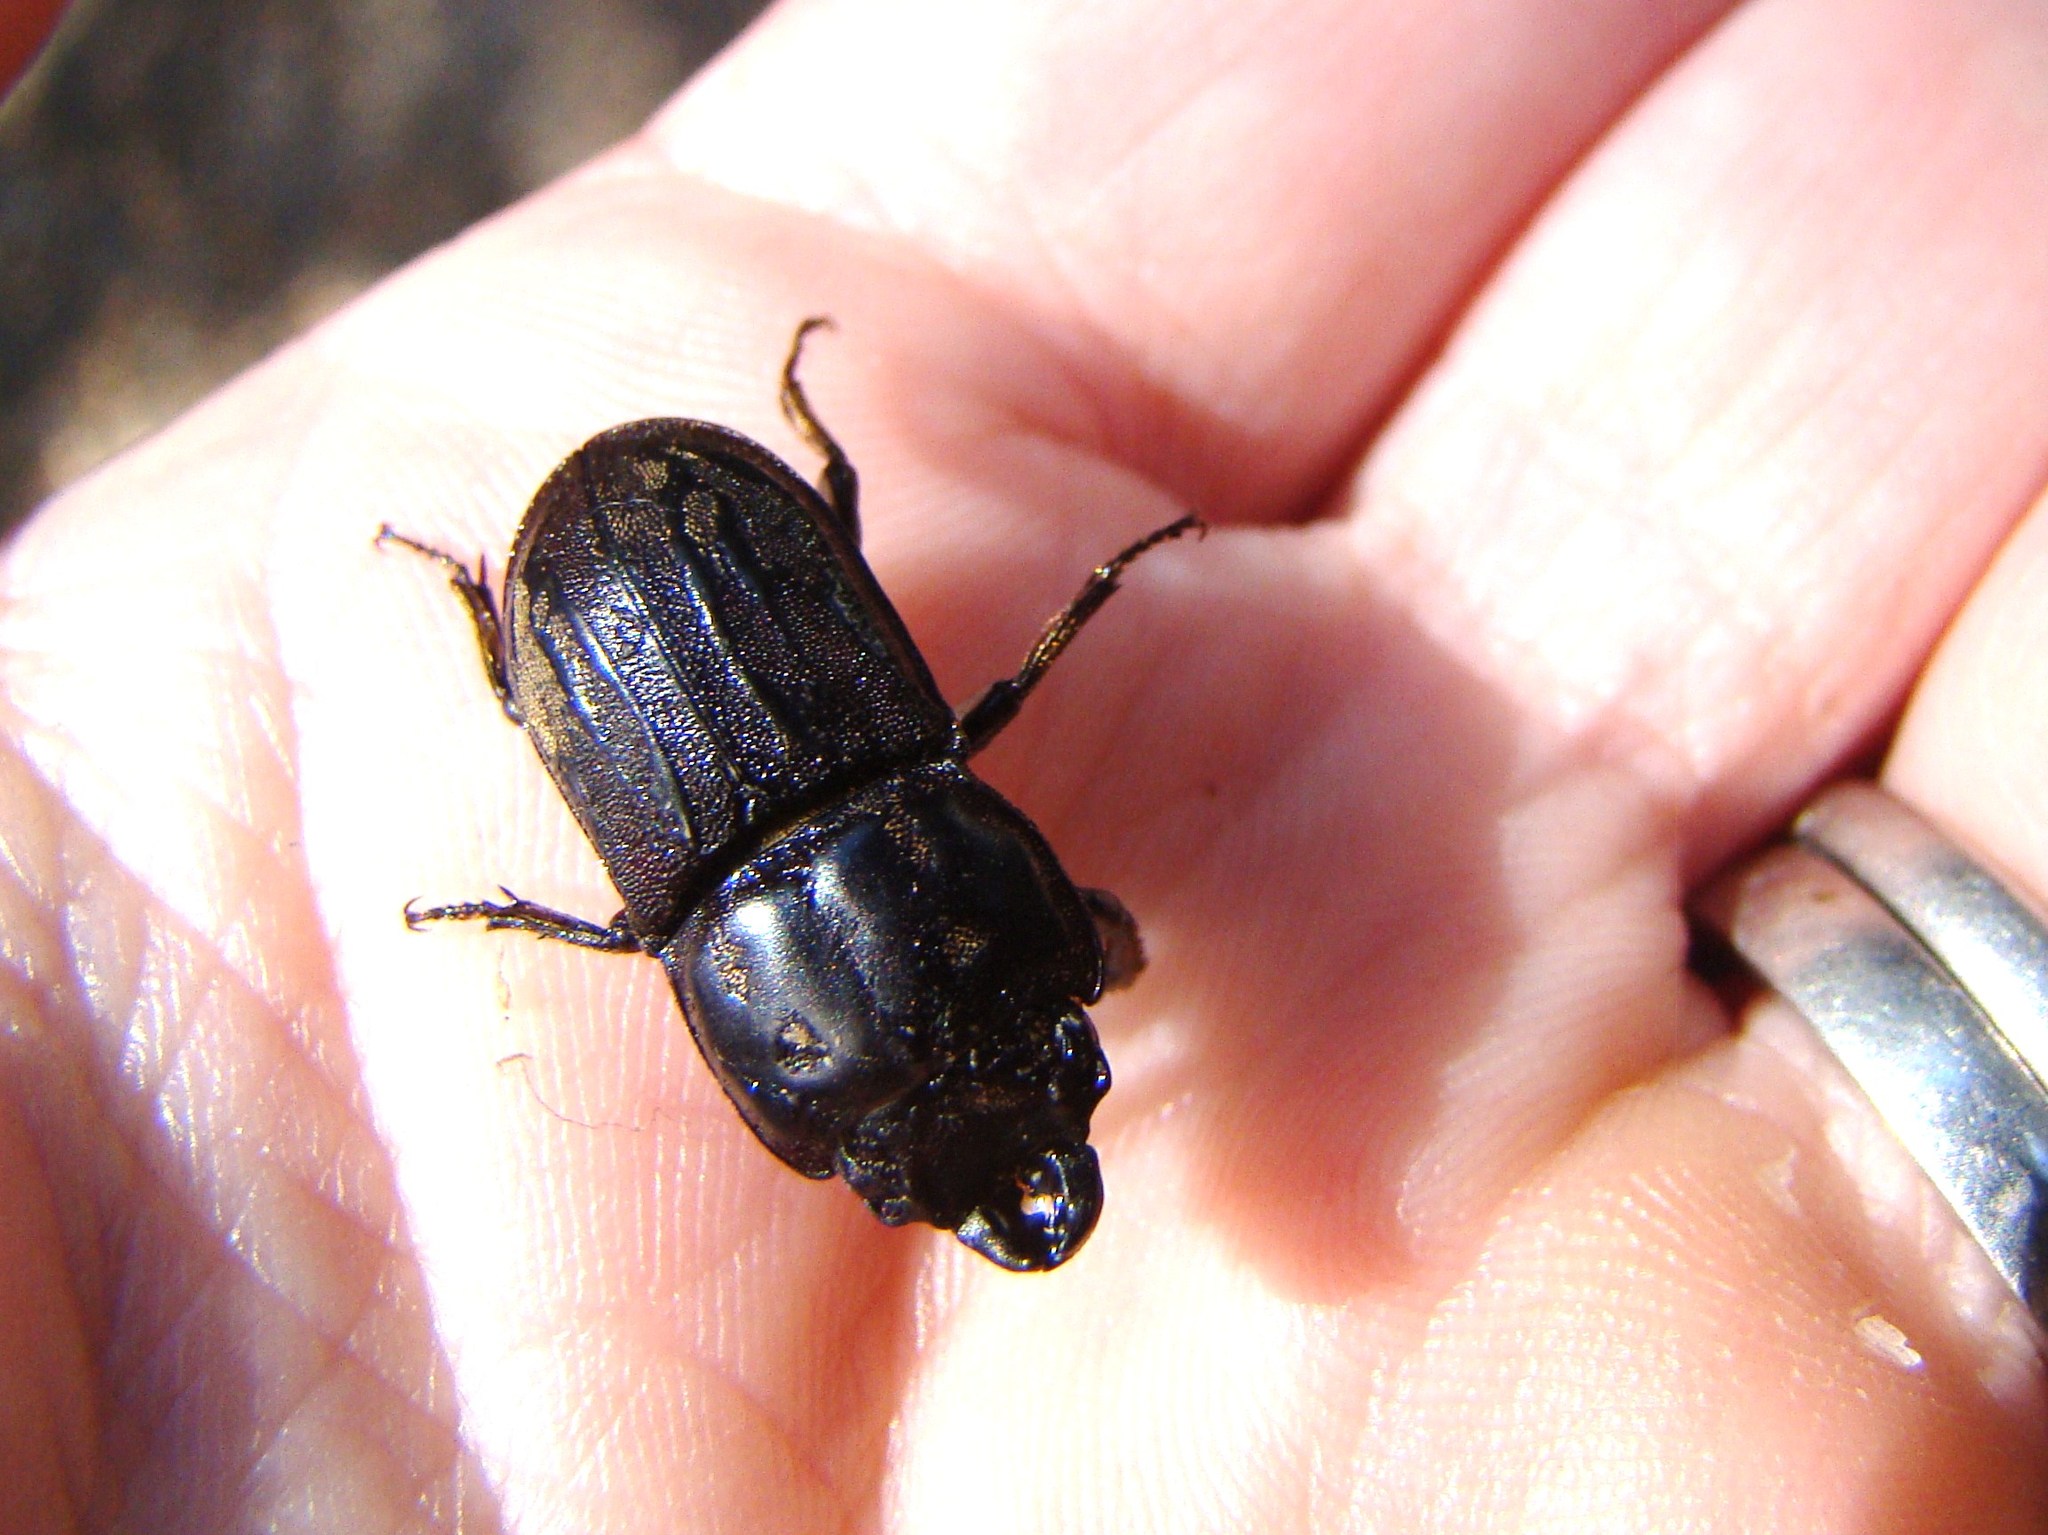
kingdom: Animalia
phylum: Arthropoda
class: Insecta
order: Coleoptera
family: Lucanidae
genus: Paralissotes
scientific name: Paralissotes reticulatus
